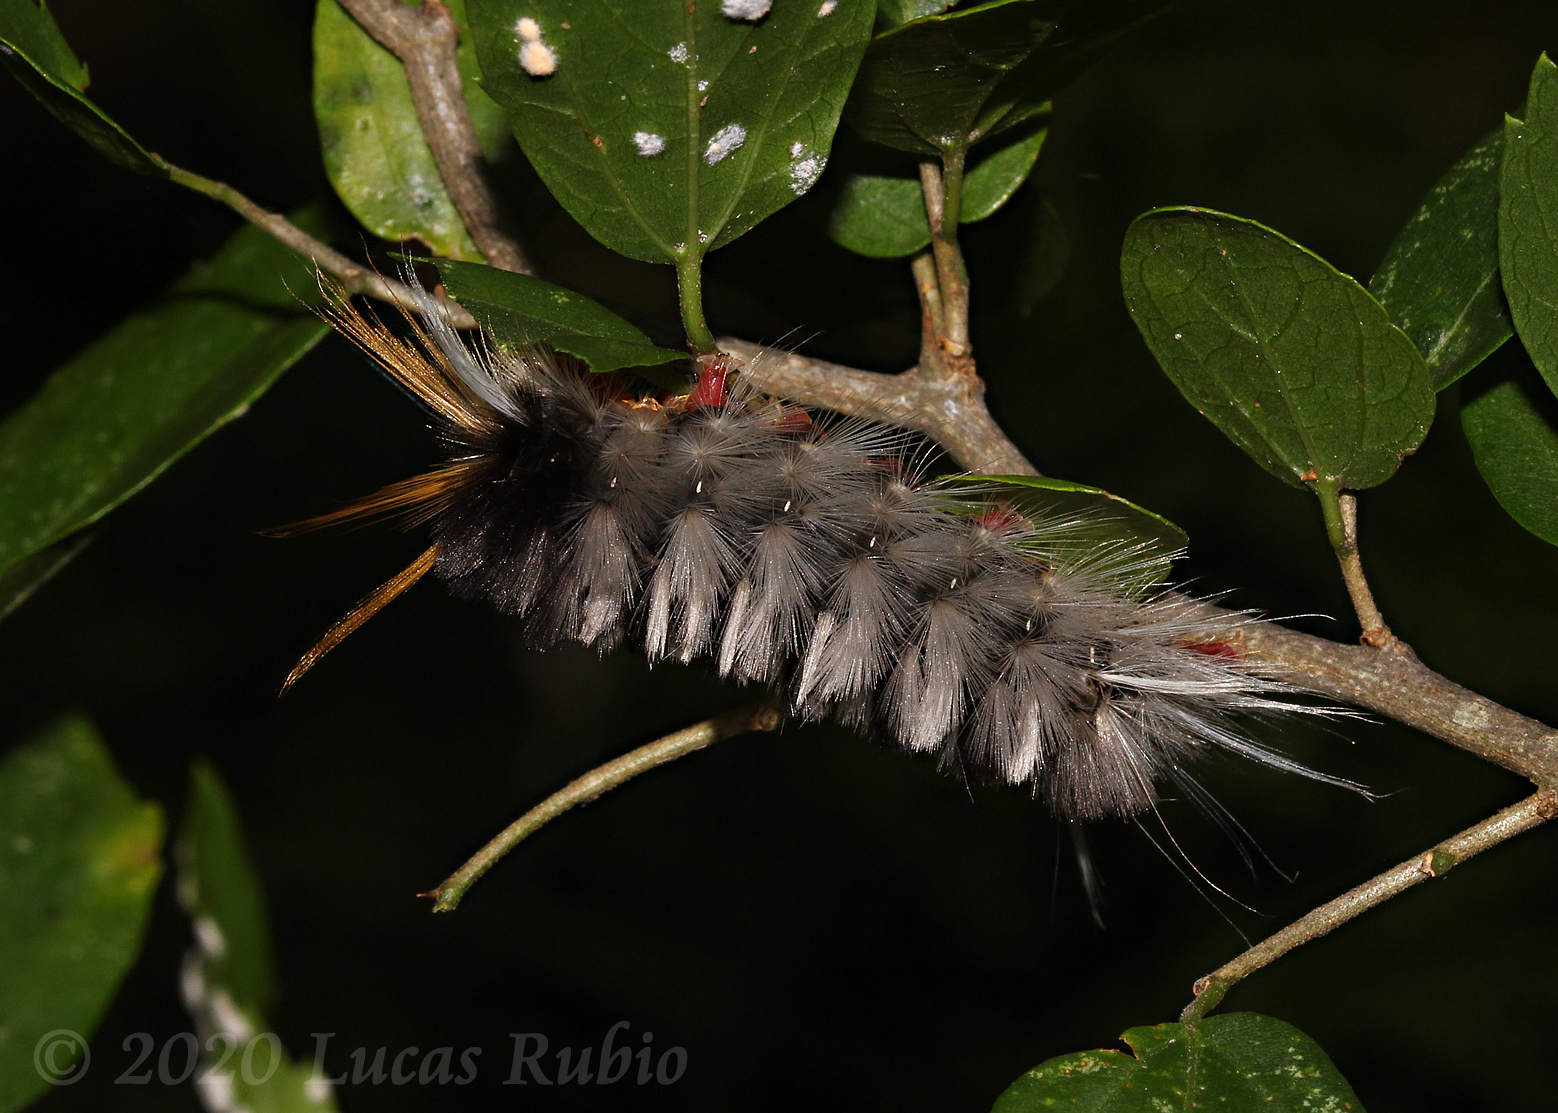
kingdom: Animalia
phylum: Arthropoda
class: Insecta
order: Lepidoptera
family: Erebidae
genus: Halysidota
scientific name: Halysidota ruscheweyhi
